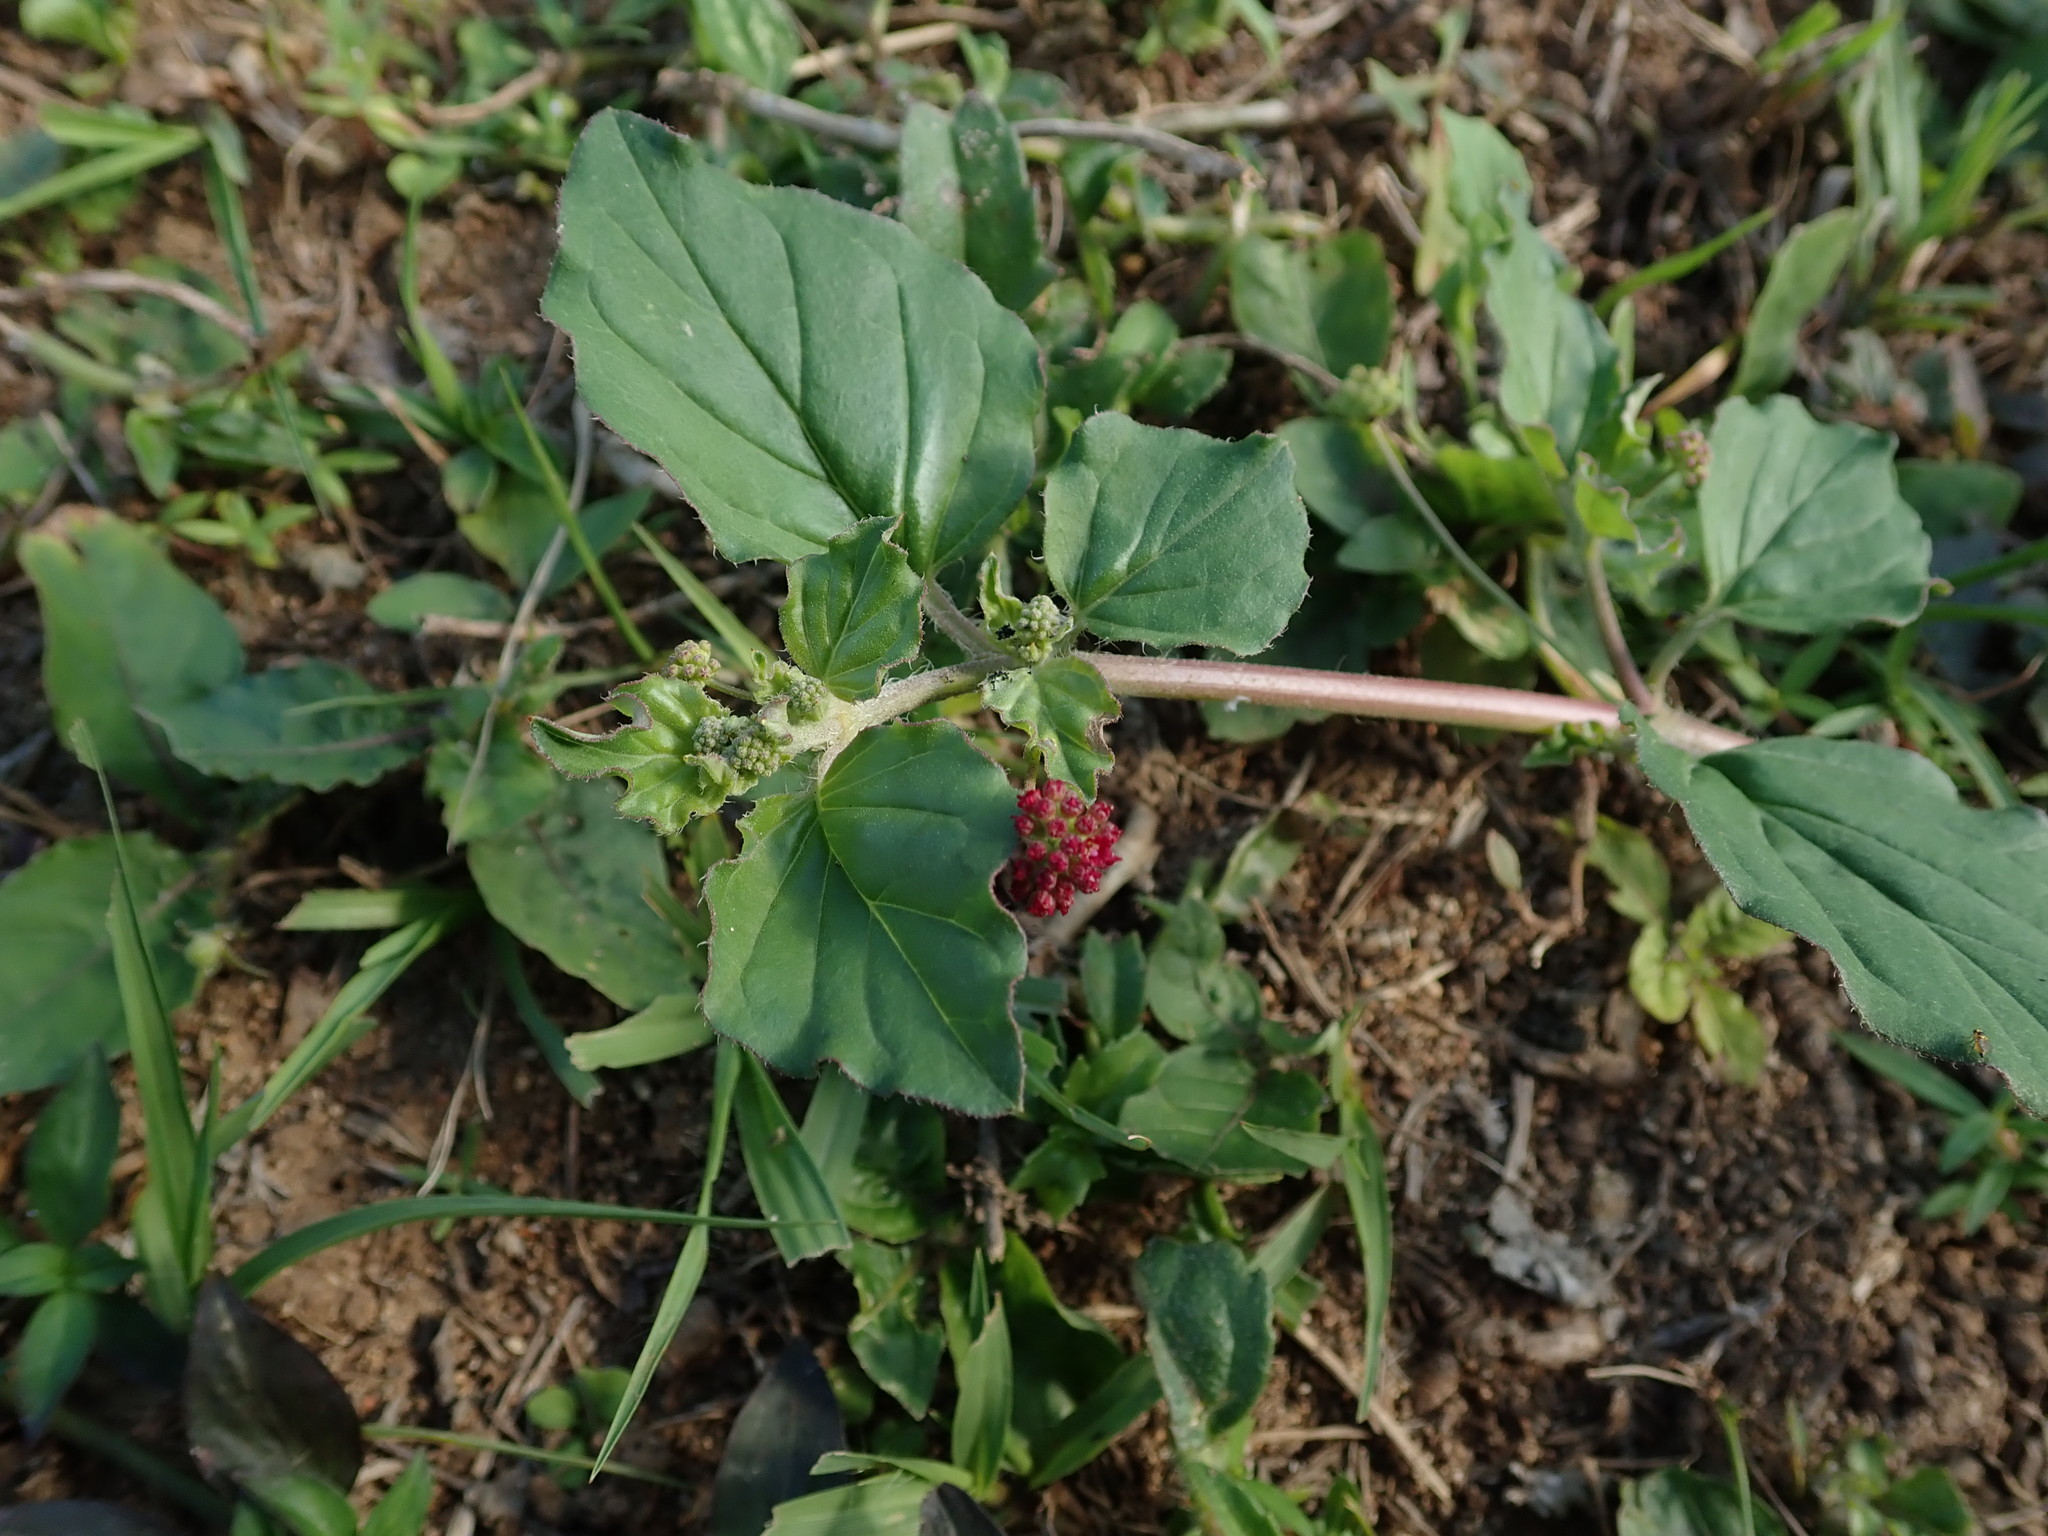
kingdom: Plantae
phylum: Tracheophyta
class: Magnoliopsida
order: Caryophyllales
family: Nyctaginaceae
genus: Boerhavia
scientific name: Boerhavia coccinea
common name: Scarlet spiderling
